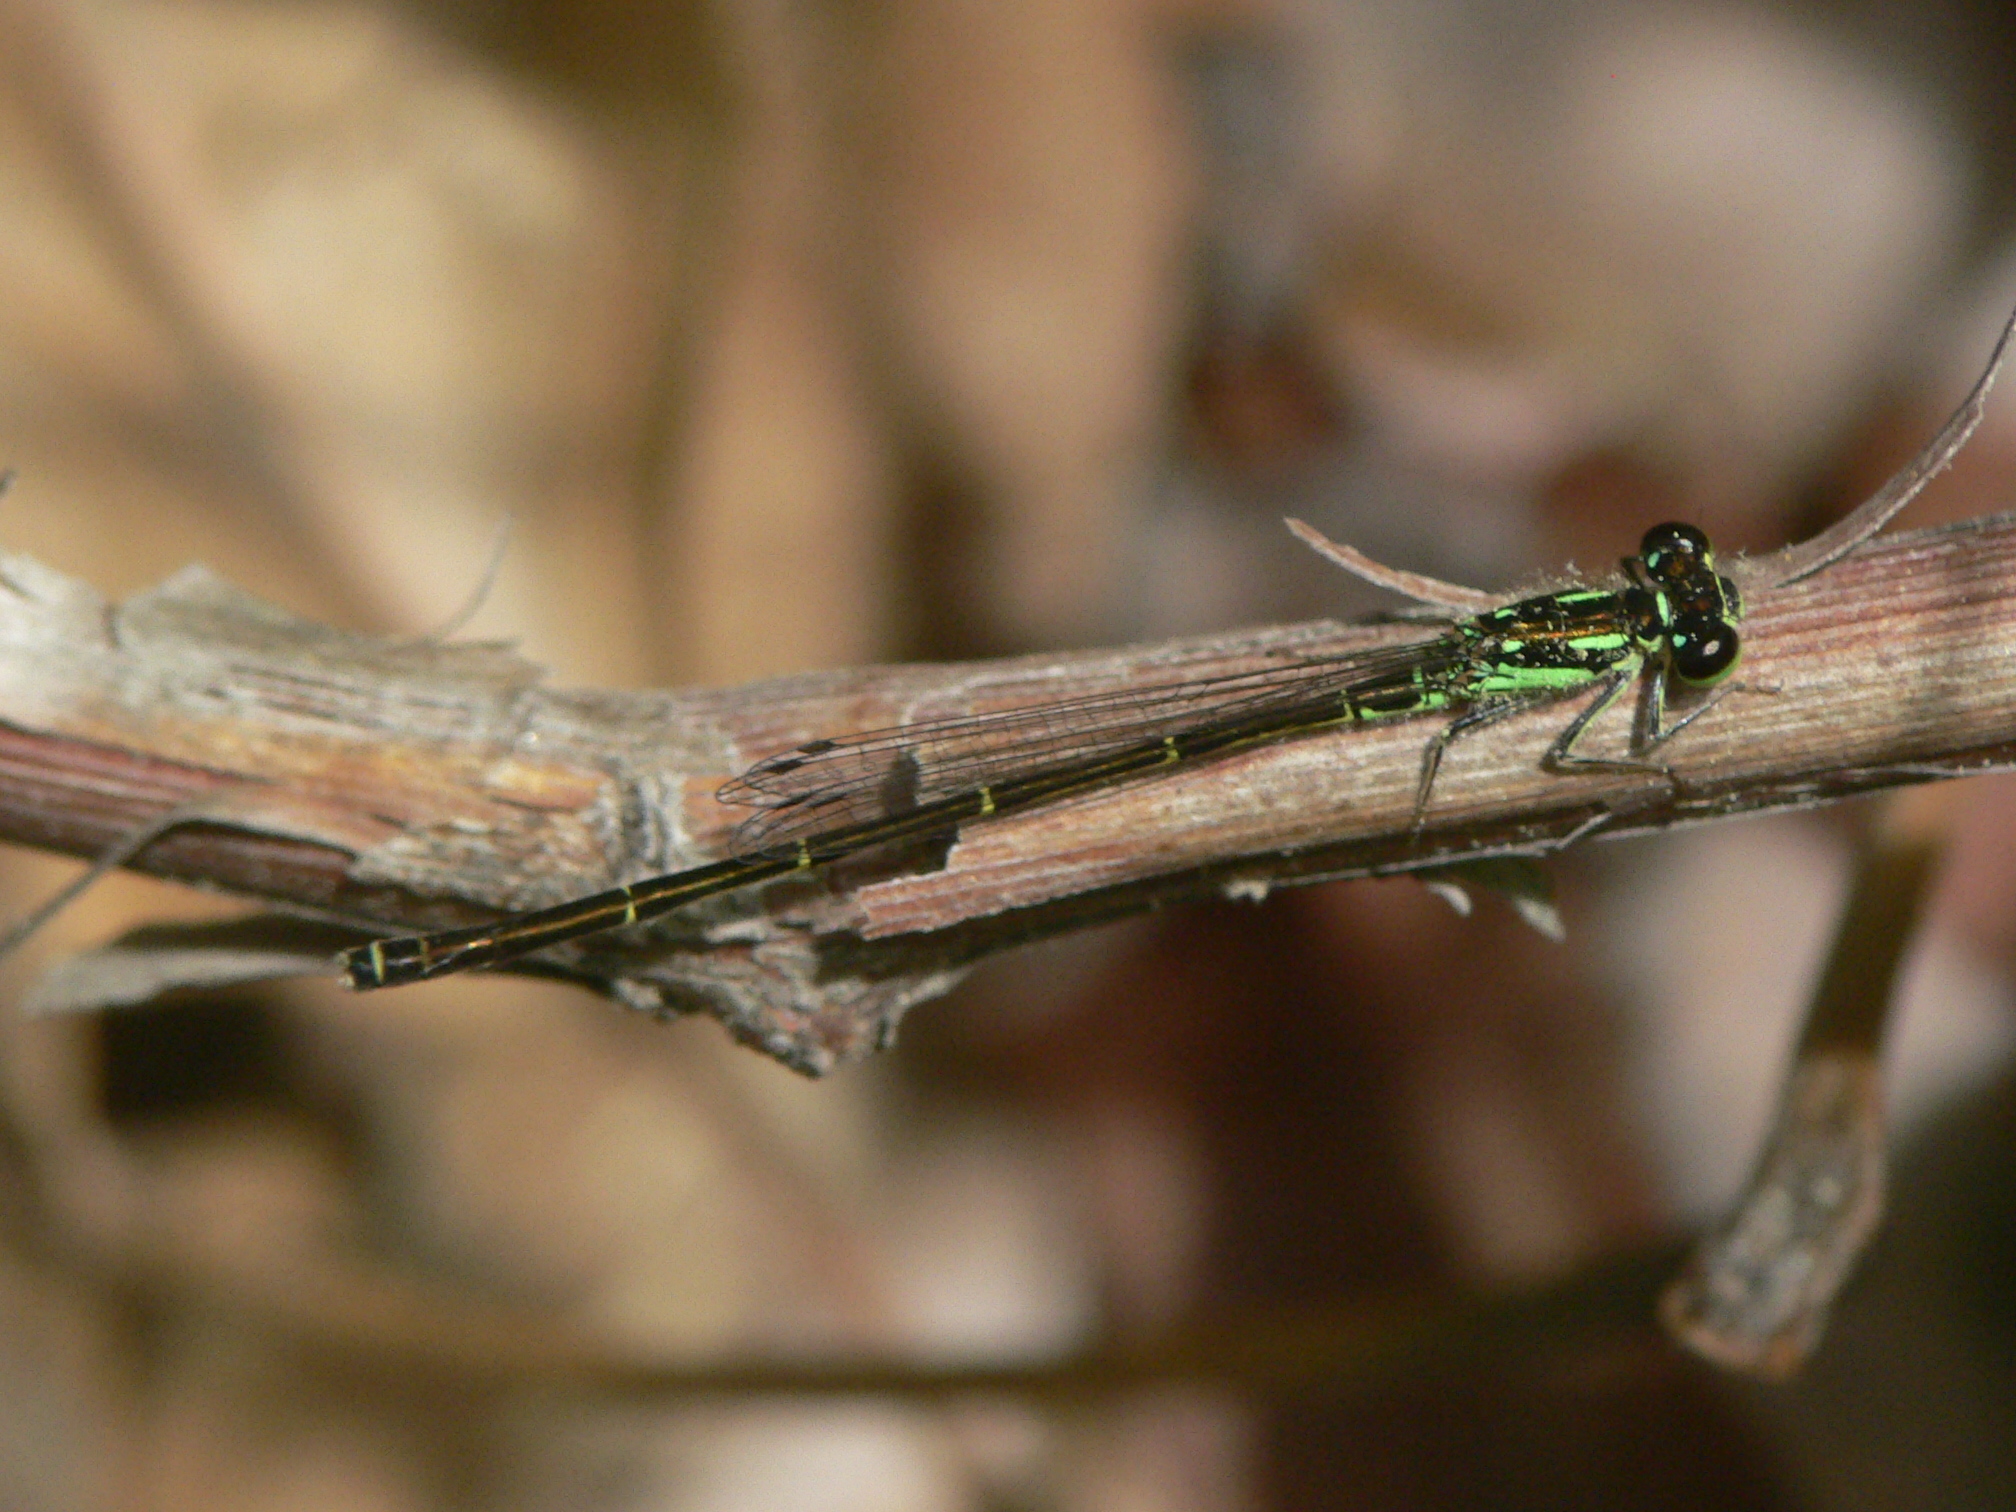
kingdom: Animalia
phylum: Arthropoda
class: Insecta
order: Odonata
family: Coenagrionidae
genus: Ischnura
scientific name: Ischnura posita
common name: Fragile forktail
